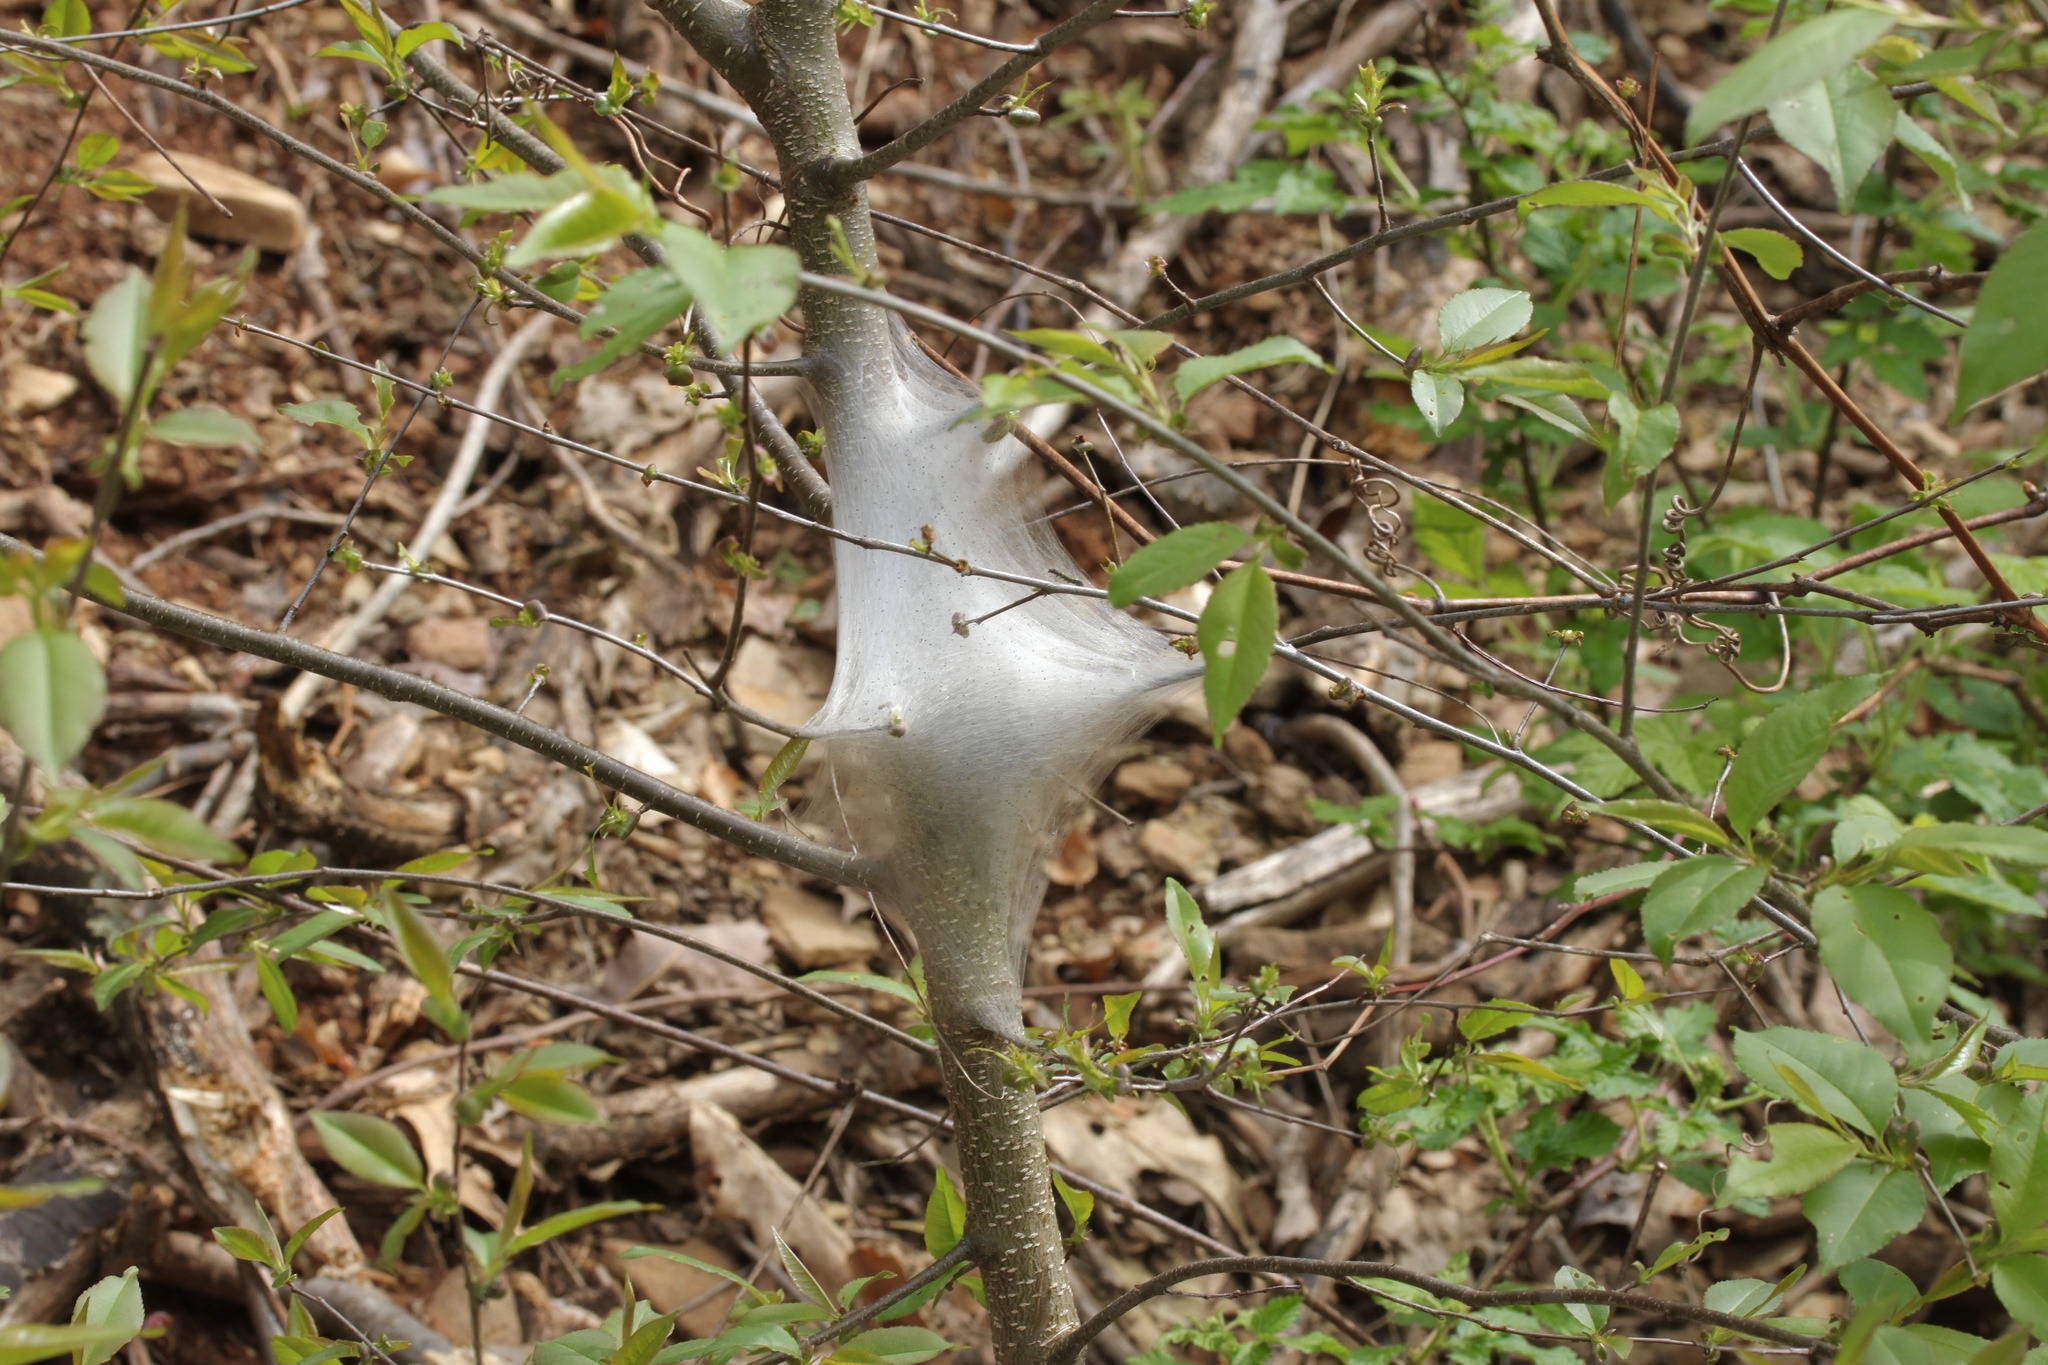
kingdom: Animalia
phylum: Arthropoda
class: Insecta
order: Lepidoptera
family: Lasiocampidae
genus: Malacosoma
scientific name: Malacosoma americana
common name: Eastern tent caterpillar moth
